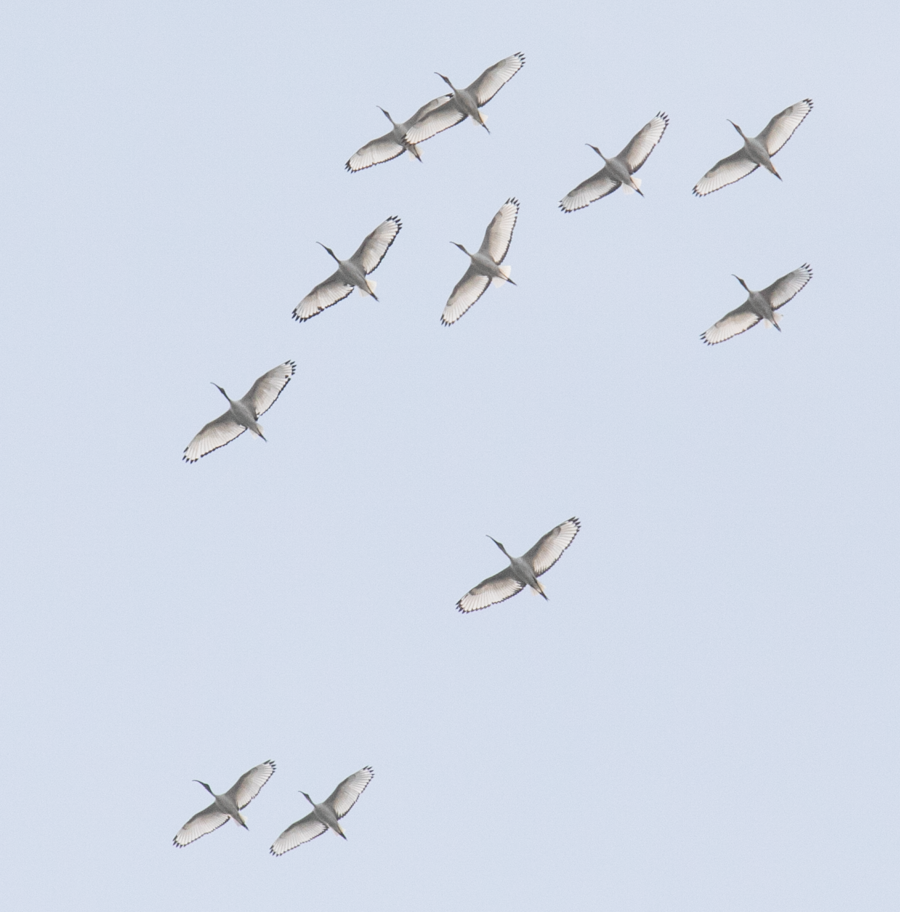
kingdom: Animalia
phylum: Chordata
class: Aves
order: Pelecaniformes
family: Threskiornithidae
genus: Threskiornis
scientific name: Threskiornis aethiopicus
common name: Sacred ibis
